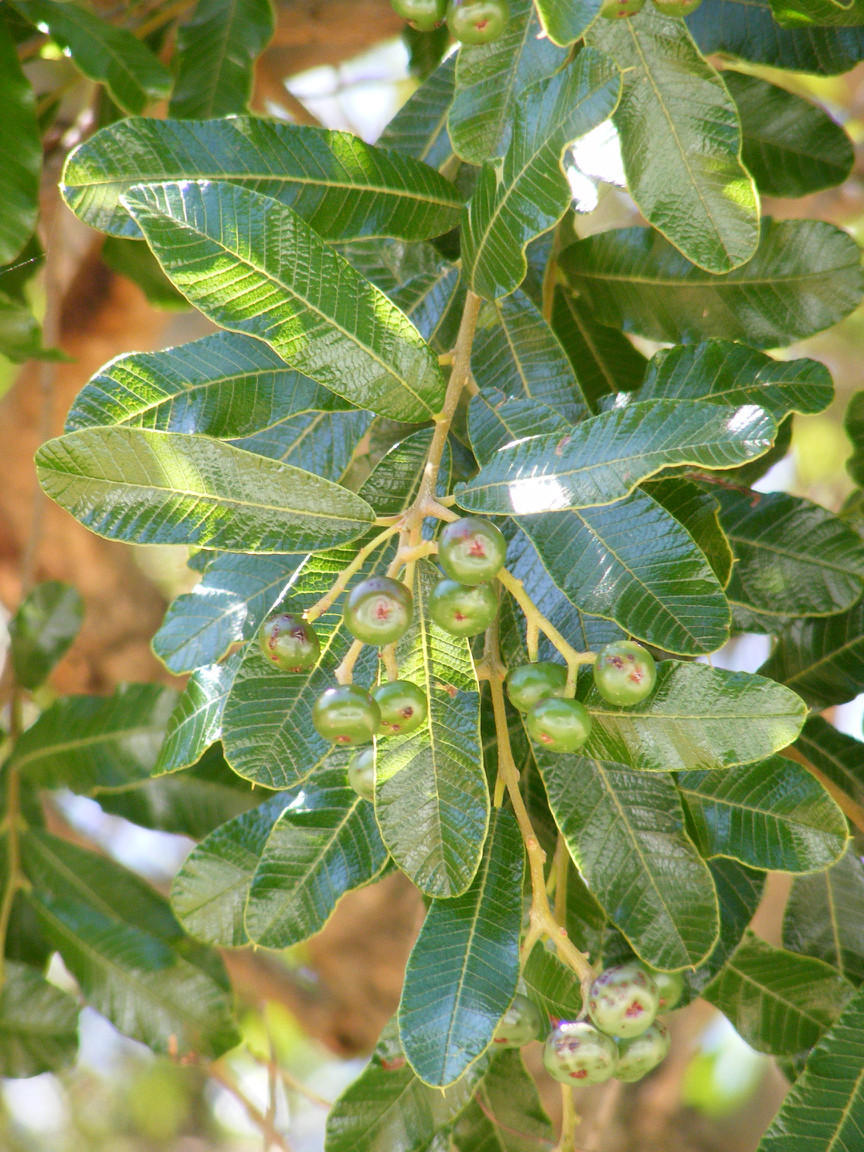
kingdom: Plantae
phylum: Tracheophyta
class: Magnoliopsida
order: Sapindales
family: Anacardiaceae
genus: Ozoroa
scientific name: Ozoroa sphaerocarpa
